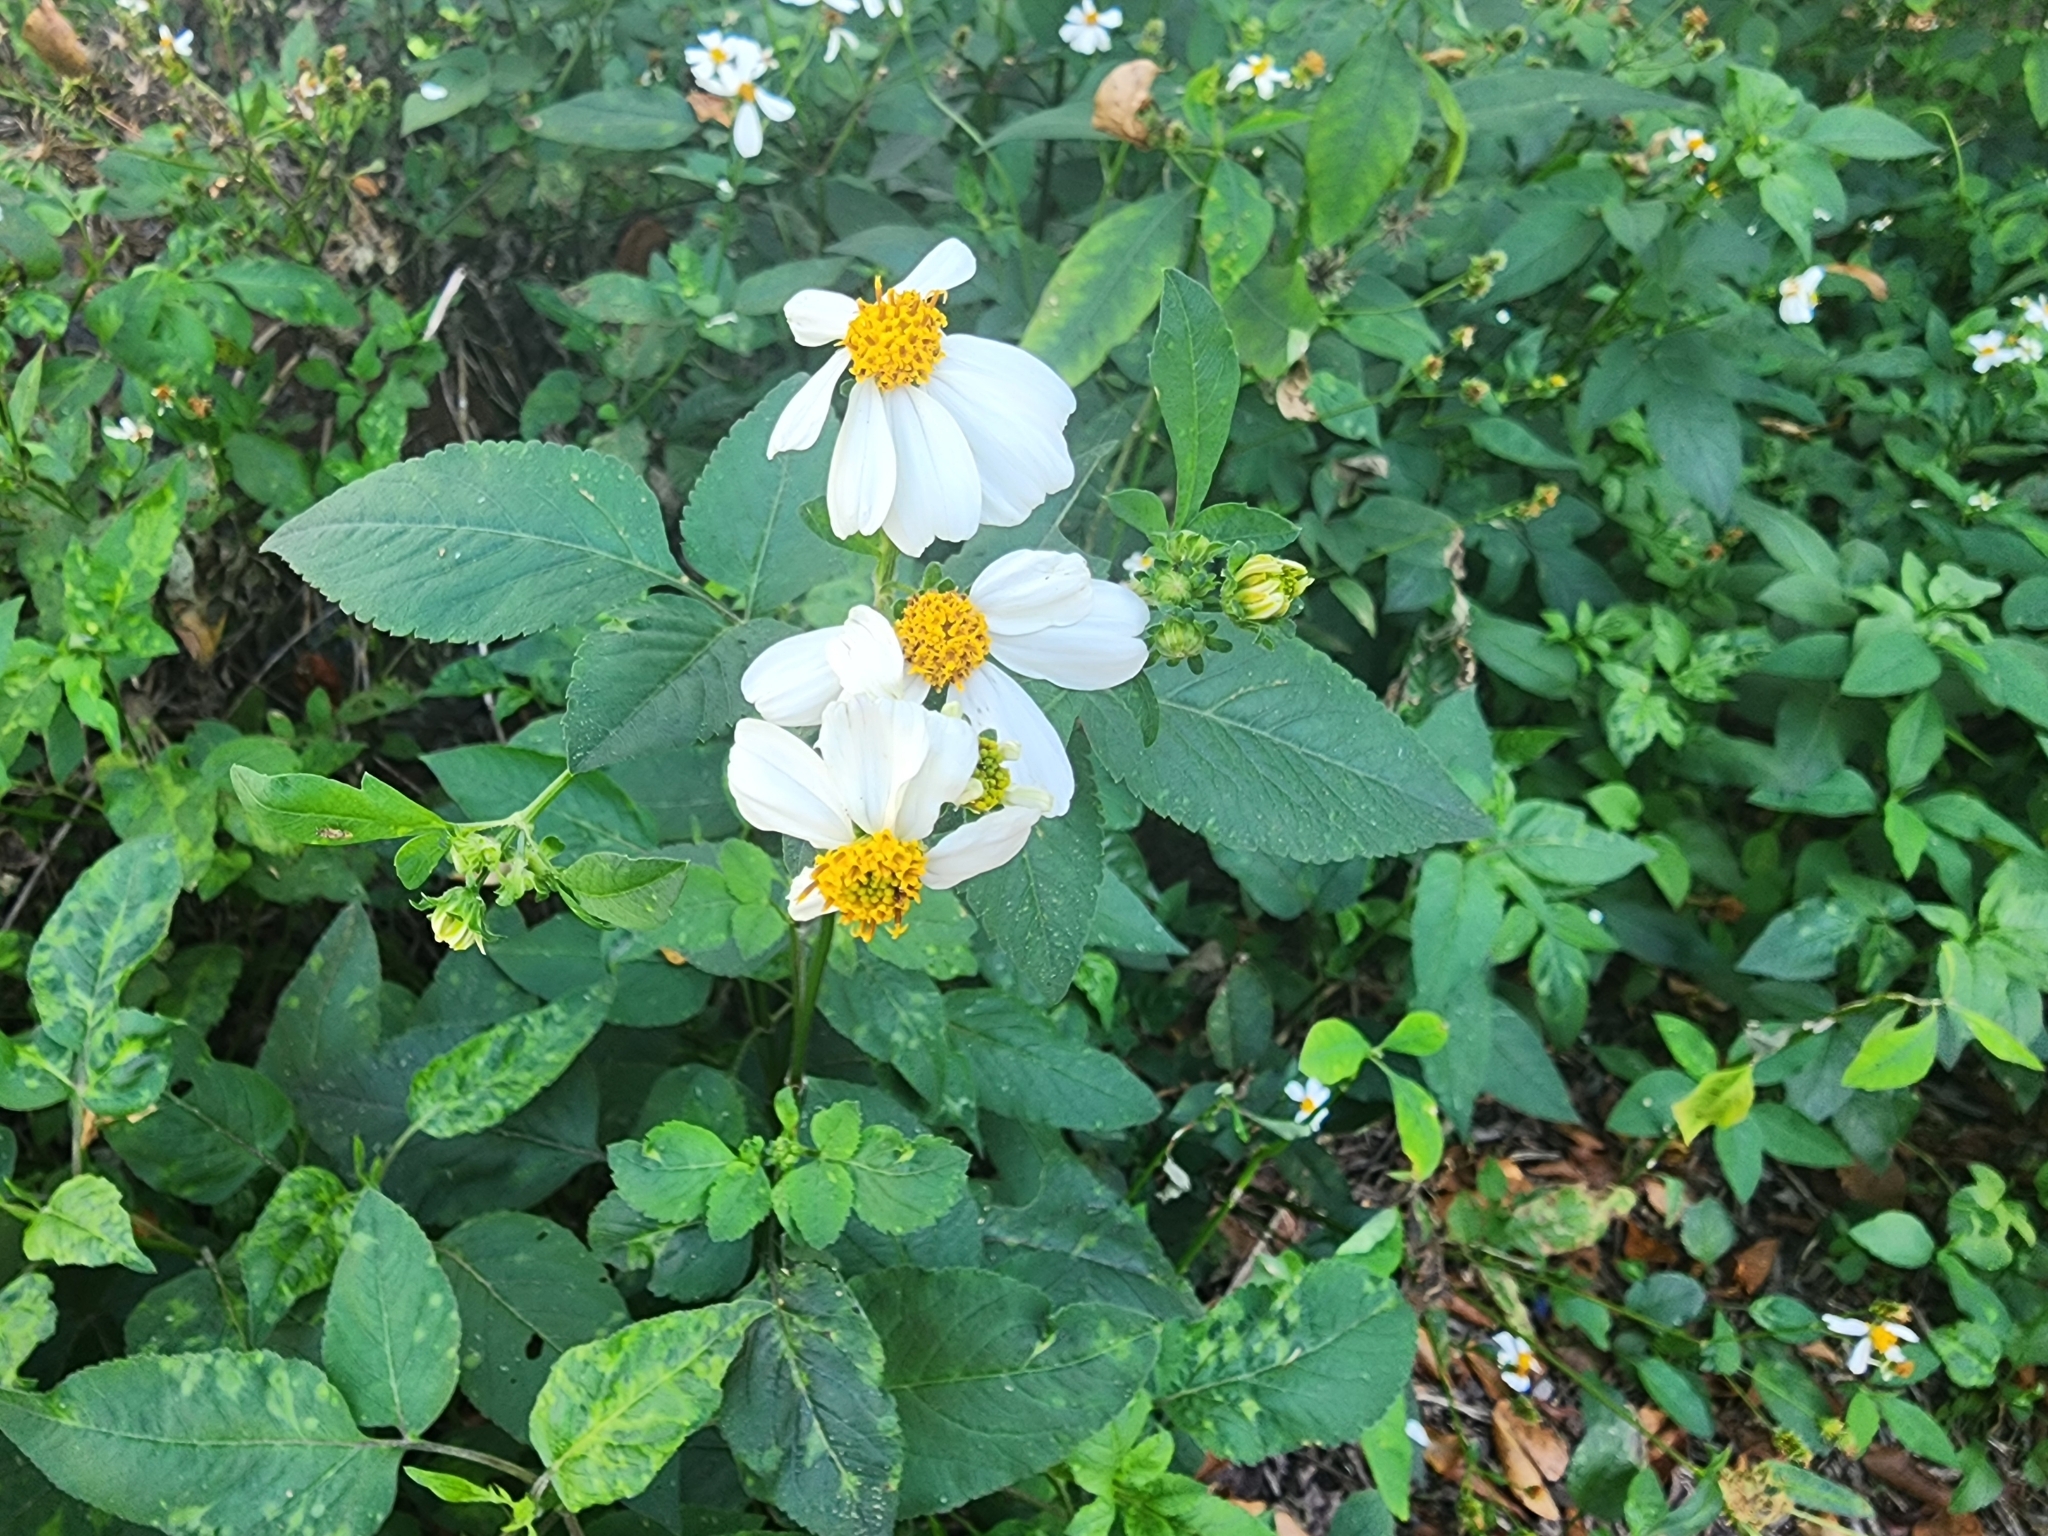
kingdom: Plantae
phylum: Tracheophyta
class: Magnoliopsida
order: Asterales
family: Asteraceae
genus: Bidens
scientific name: Bidens alba
